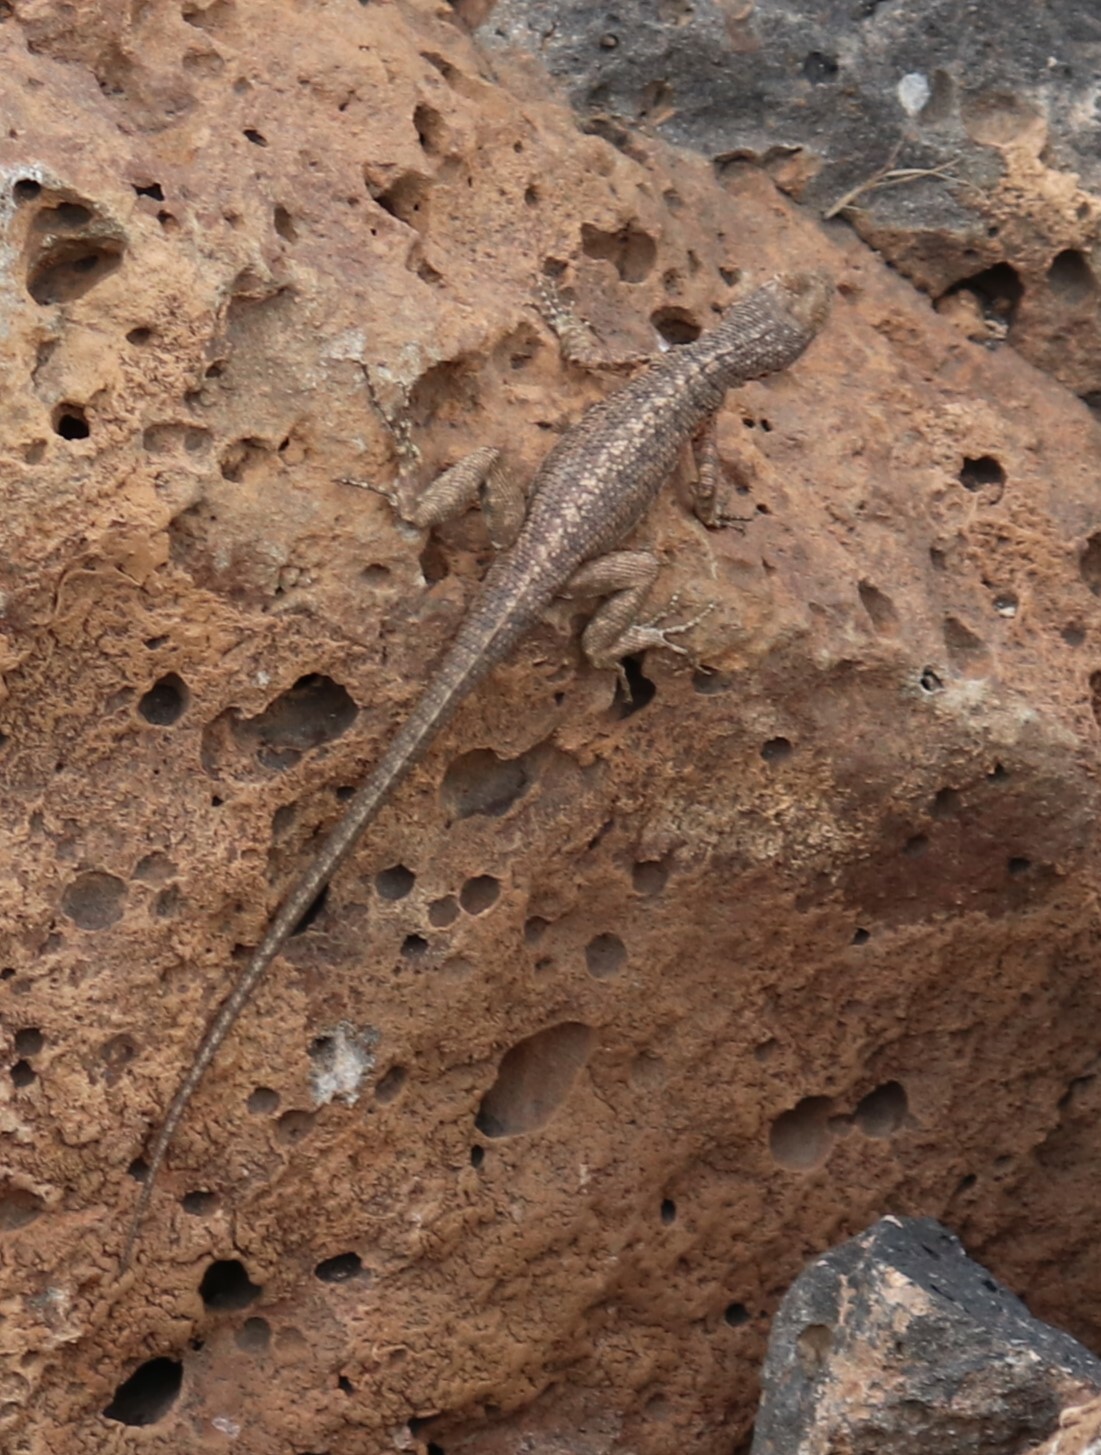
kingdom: Animalia
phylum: Chordata
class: Squamata
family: Tropiduridae
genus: Microlophus
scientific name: Microlophus indefatigabilis
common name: Galapagos lava lizard
